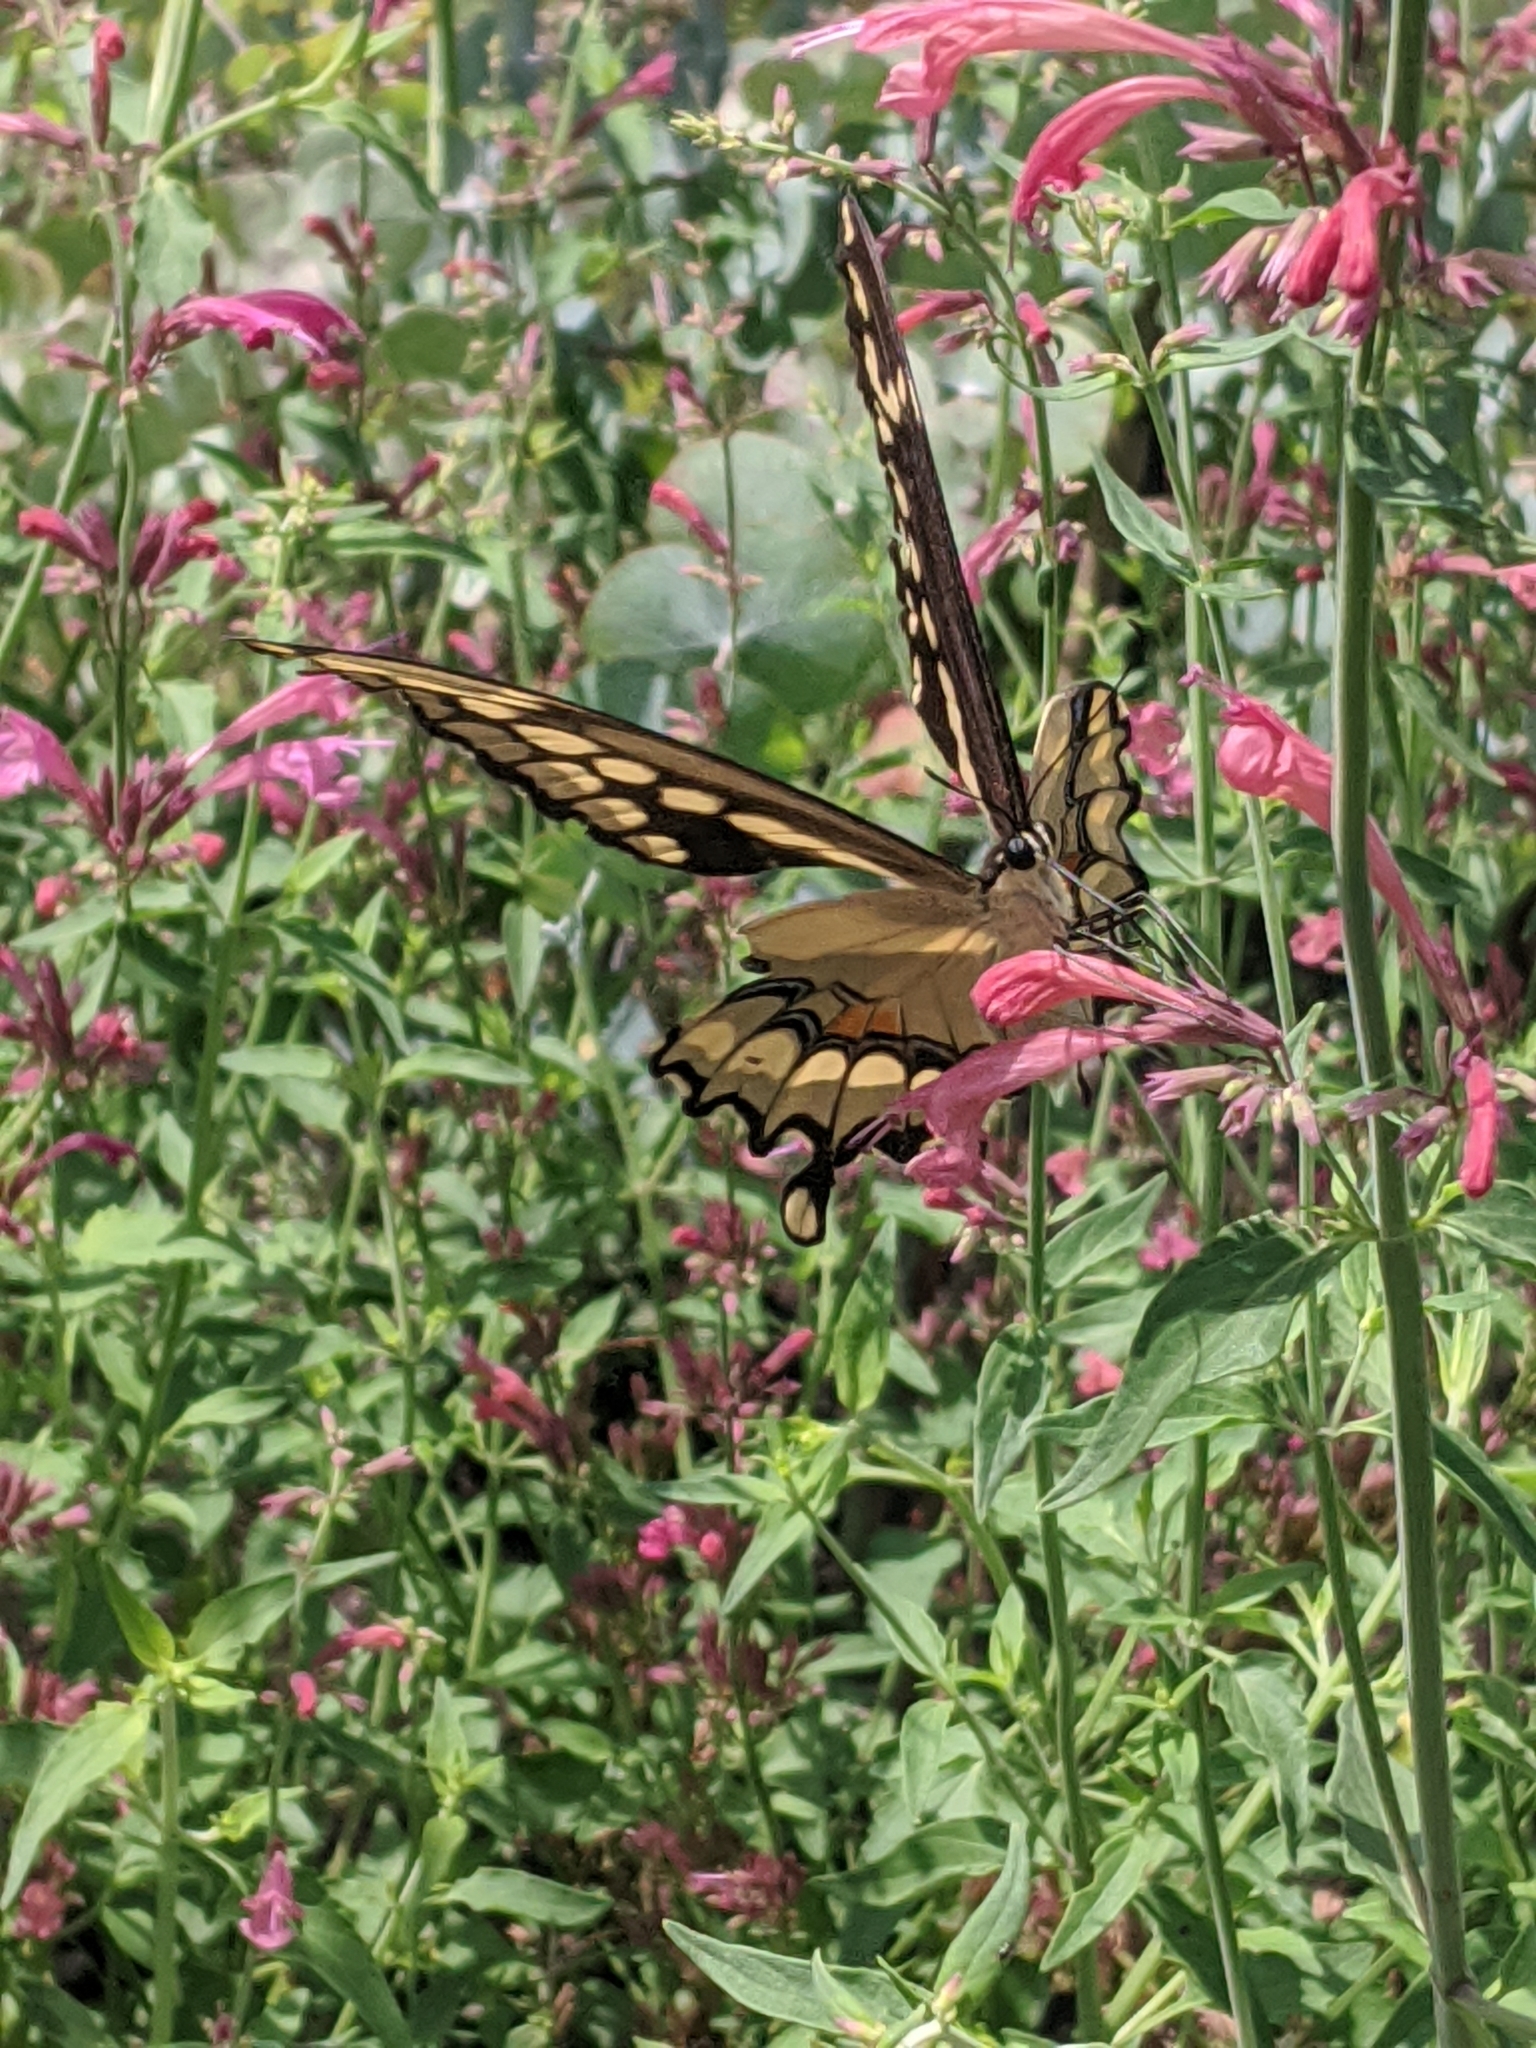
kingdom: Animalia
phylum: Arthropoda
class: Insecta
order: Lepidoptera
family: Papilionidae
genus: Papilio
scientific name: Papilio cresphontes
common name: Giant swallowtail
